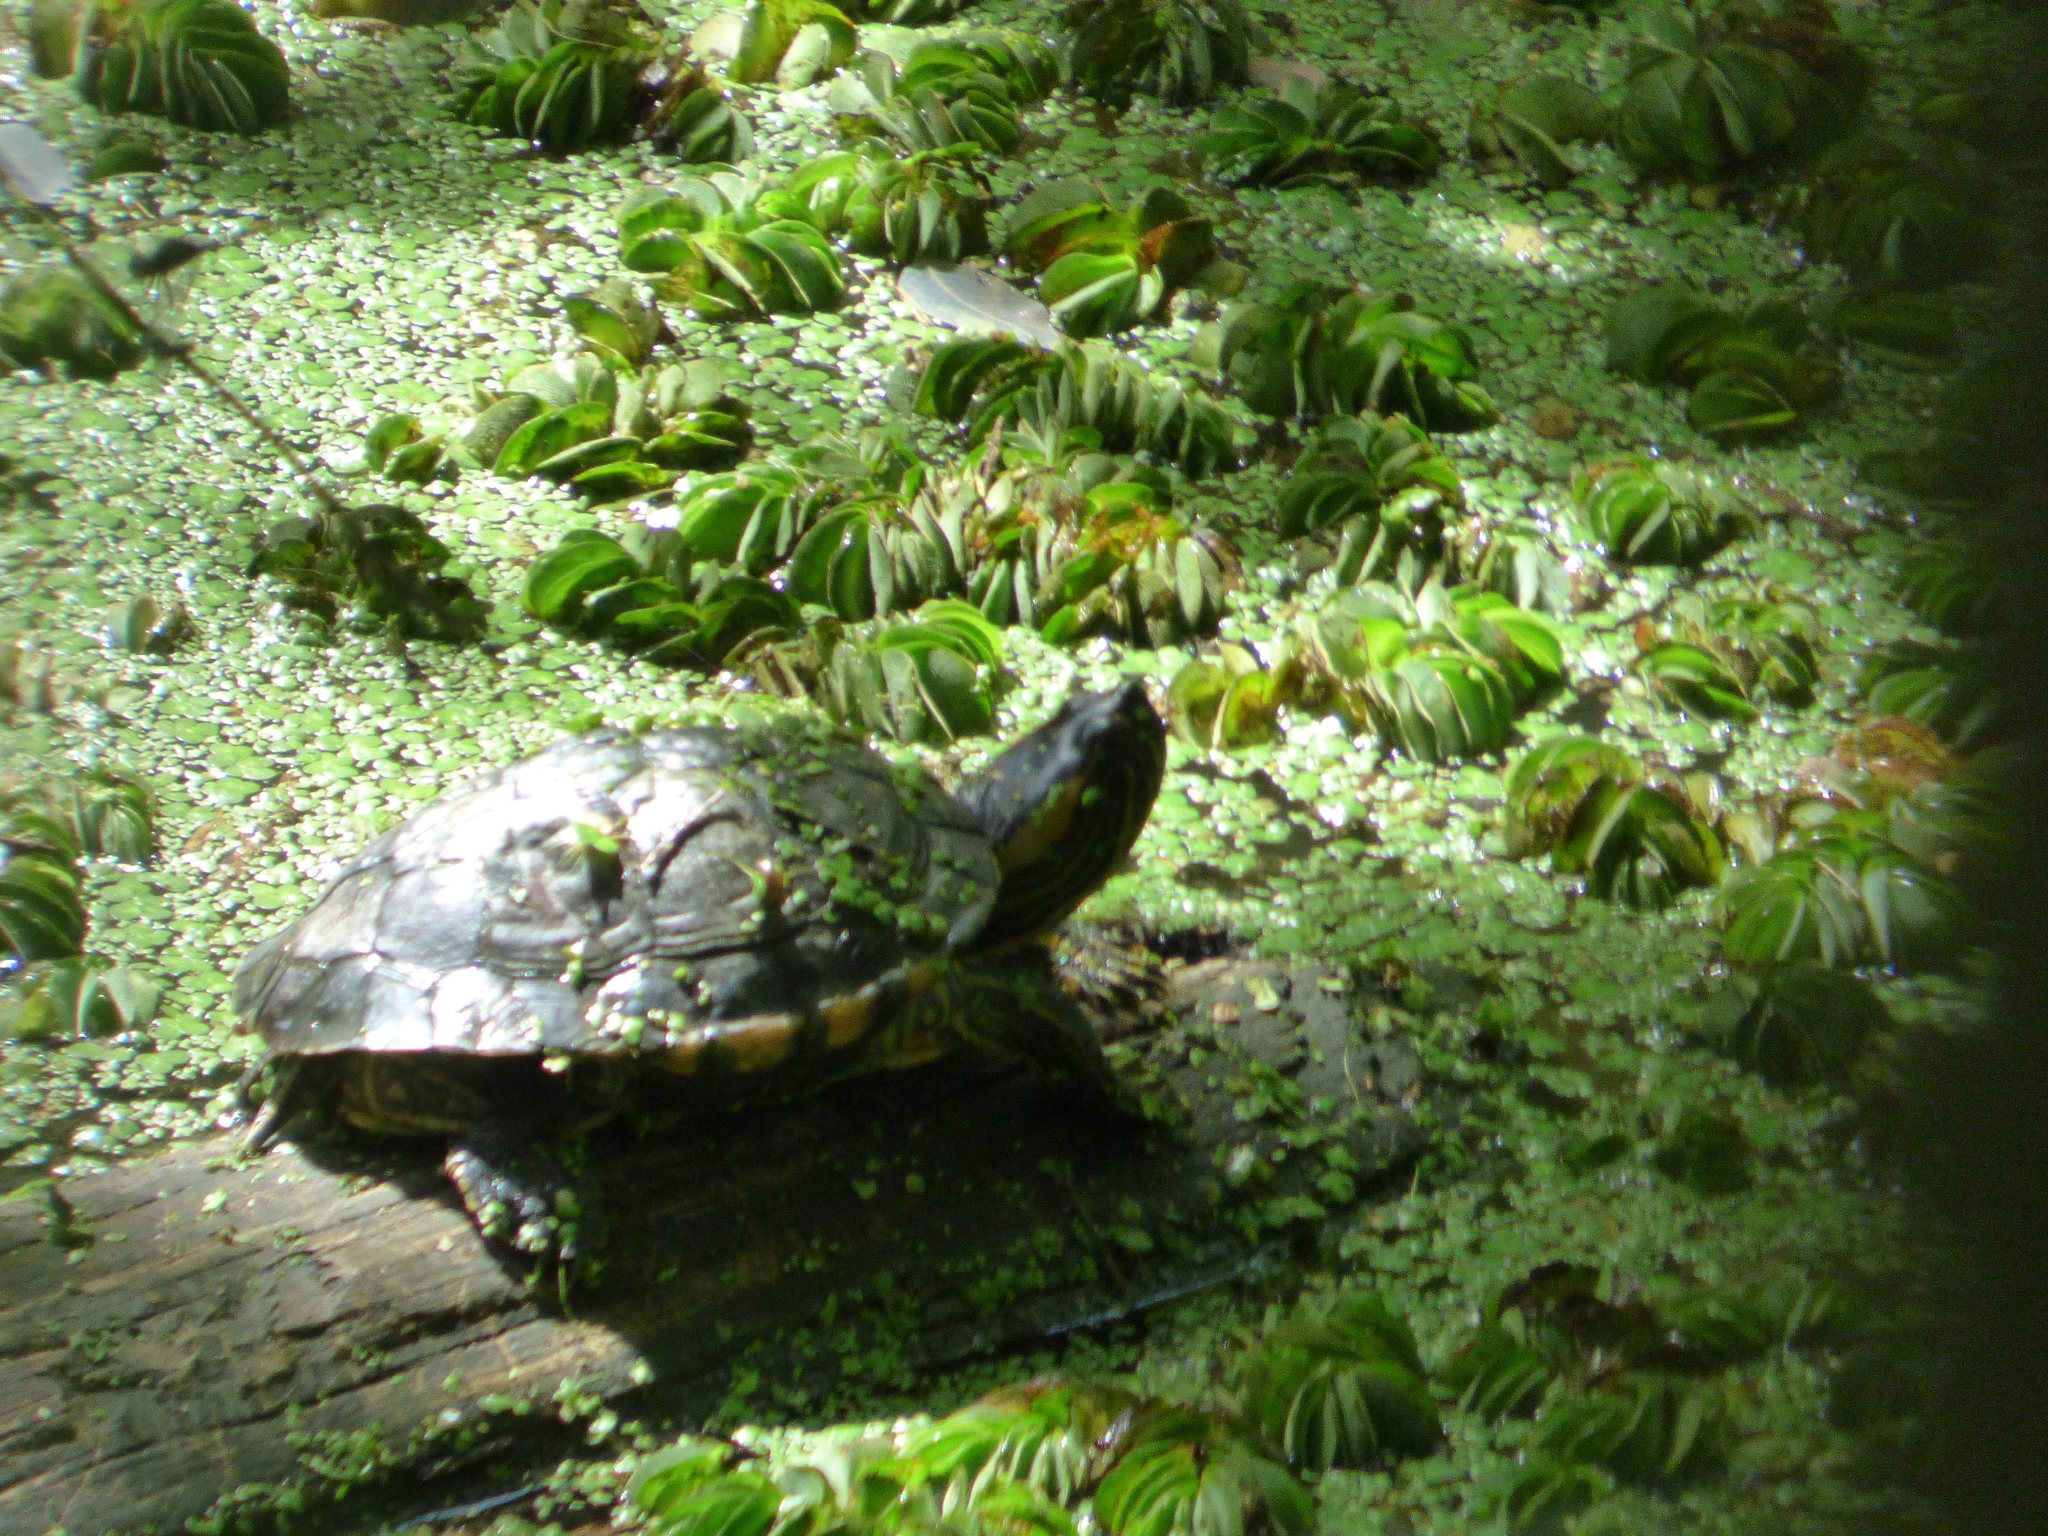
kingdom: Animalia
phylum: Chordata
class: Testudines
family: Emydidae
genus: Trachemys
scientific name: Trachemys dorbigni
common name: Black-bellied slider
